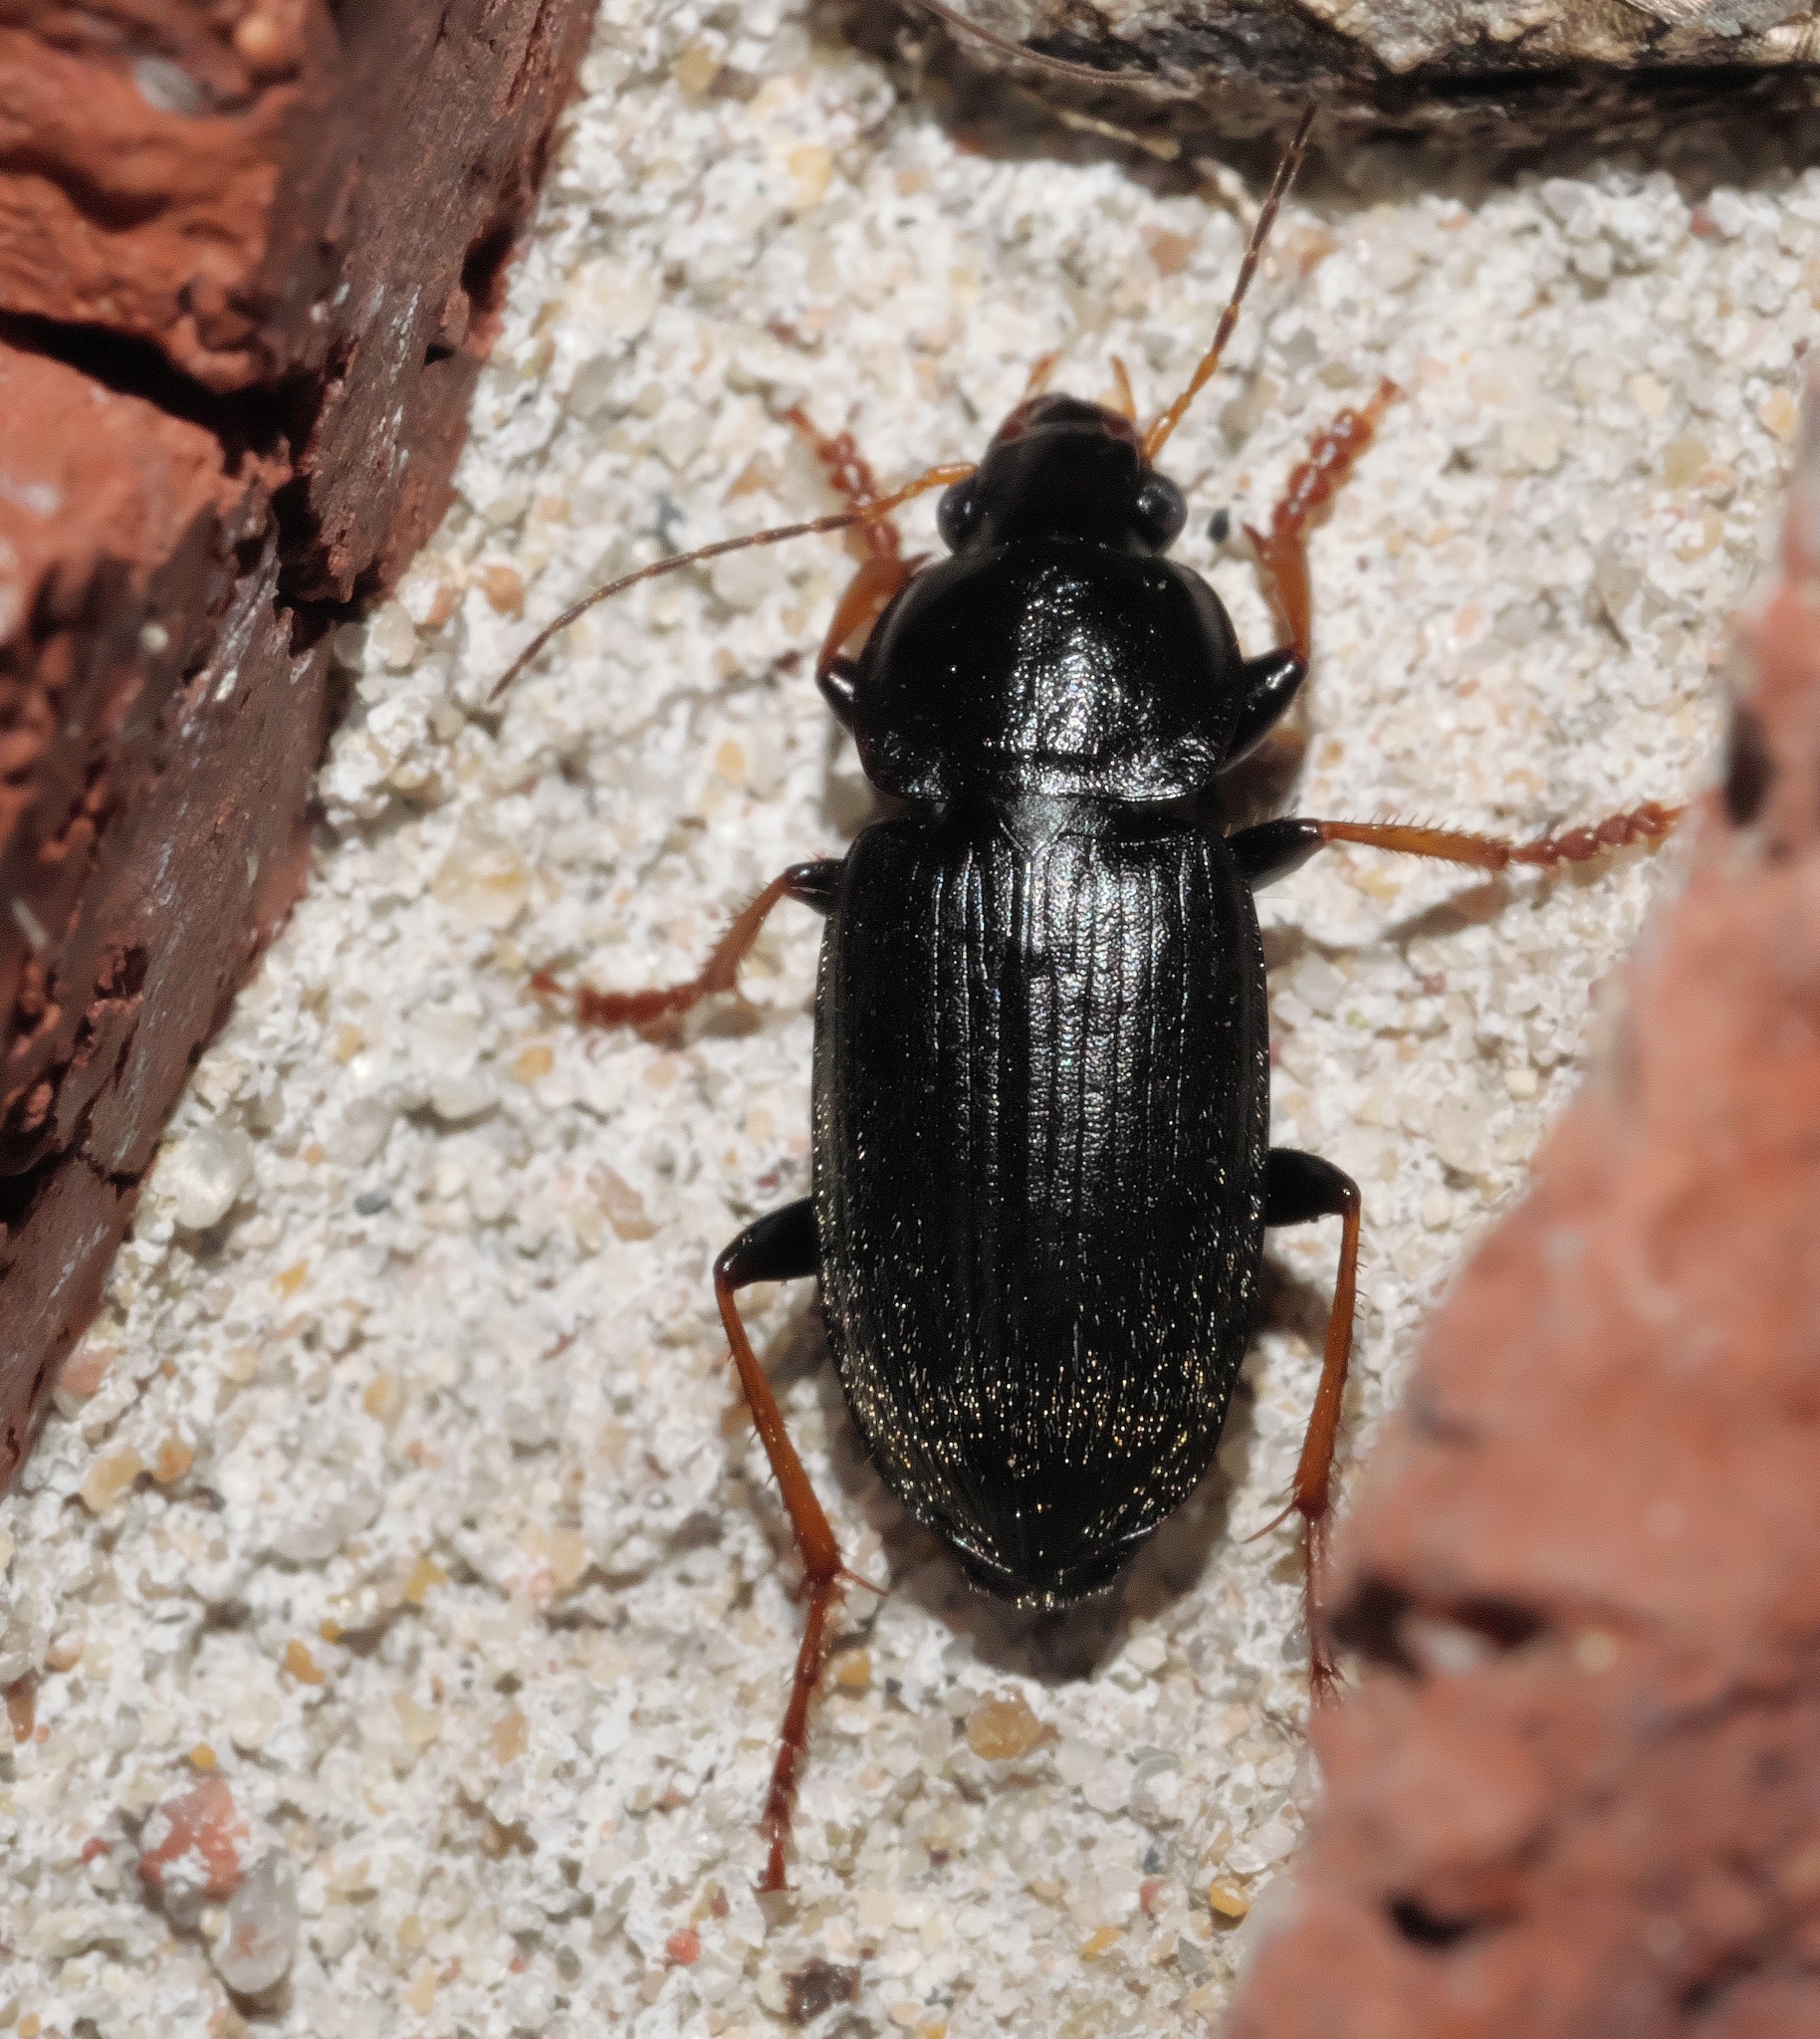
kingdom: Animalia
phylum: Arthropoda
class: Insecta
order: Coleoptera
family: Carabidae
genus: Amphasia
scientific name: Amphasia sericea
